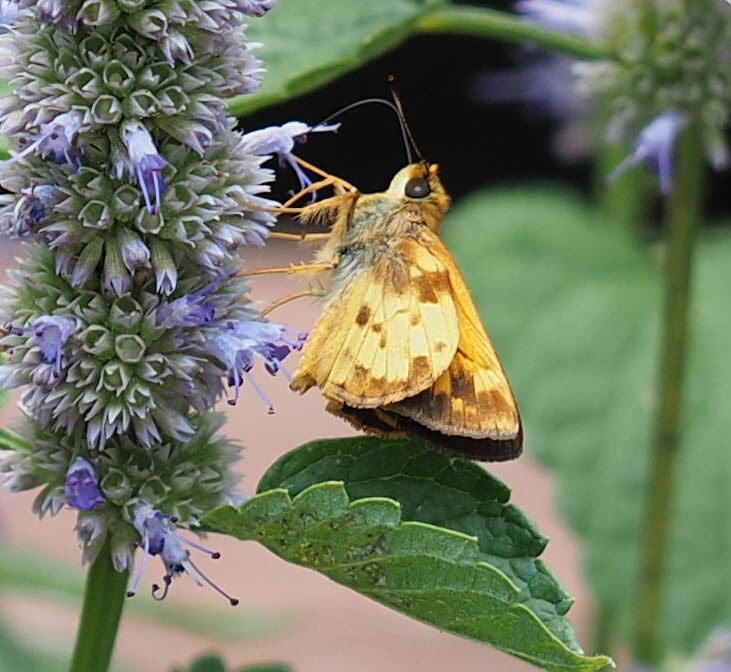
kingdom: Animalia
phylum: Arthropoda
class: Insecta
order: Lepidoptera
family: Hesperiidae
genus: Lon
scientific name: Lon zabulon
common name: Zabulon skipper
